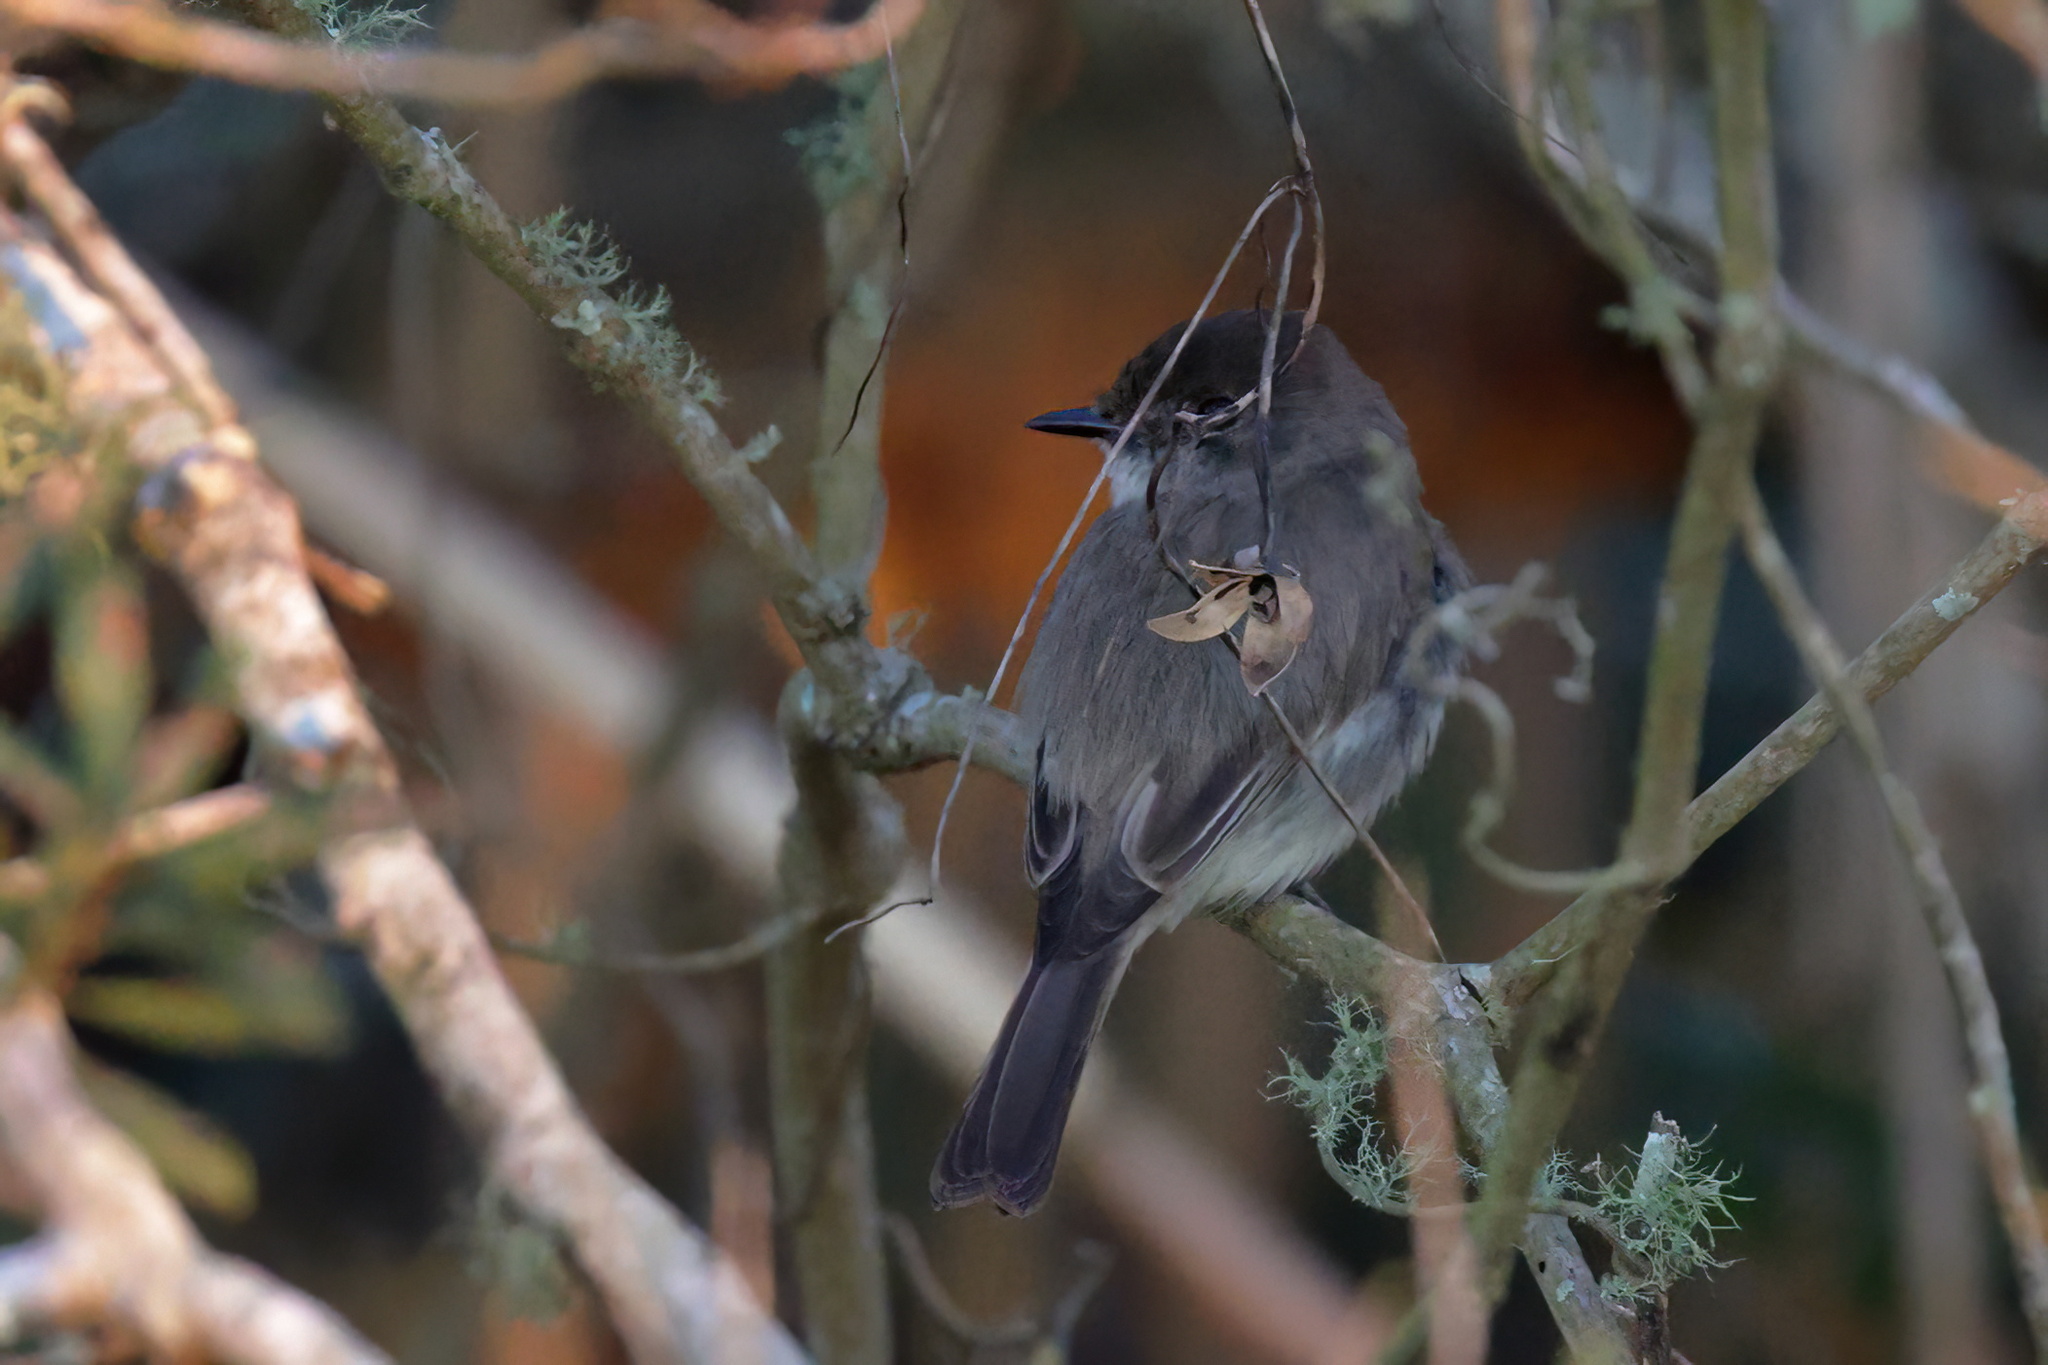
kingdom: Animalia
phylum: Chordata
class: Aves
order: Passeriformes
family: Tyrannidae
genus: Sayornis
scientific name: Sayornis phoebe
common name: Eastern phoebe
